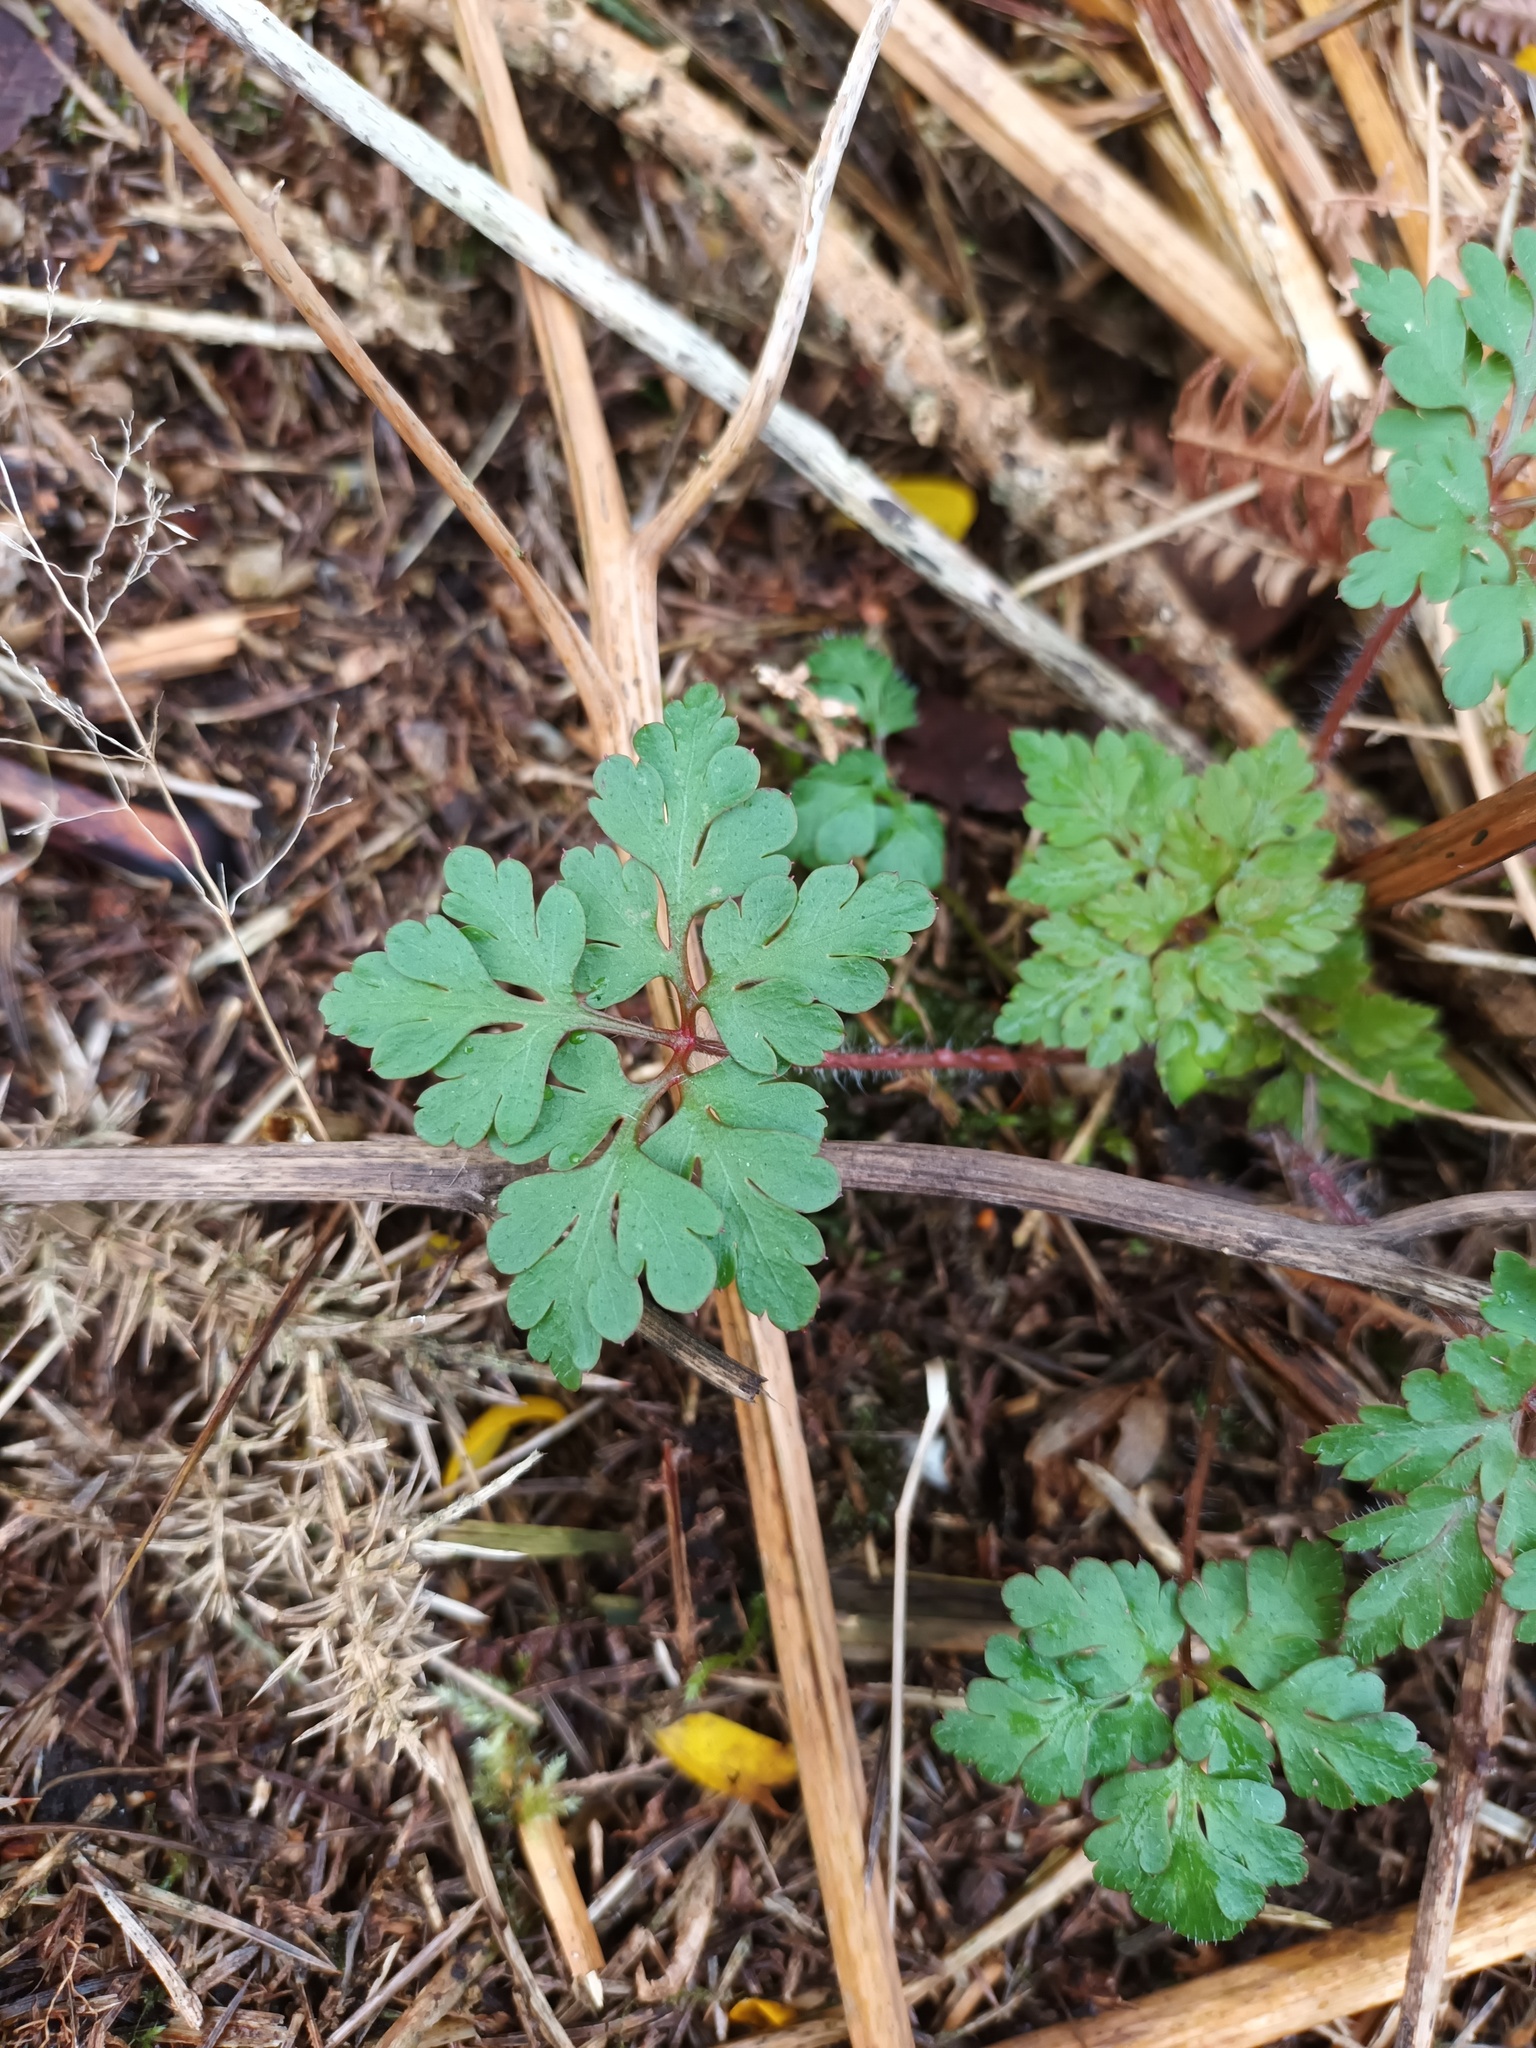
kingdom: Plantae
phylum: Tracheophyta
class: Magnoliopsida
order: Geraniales
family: Geraniaceae
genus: Geranium
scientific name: Geranium robertianum
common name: Herb-robert
